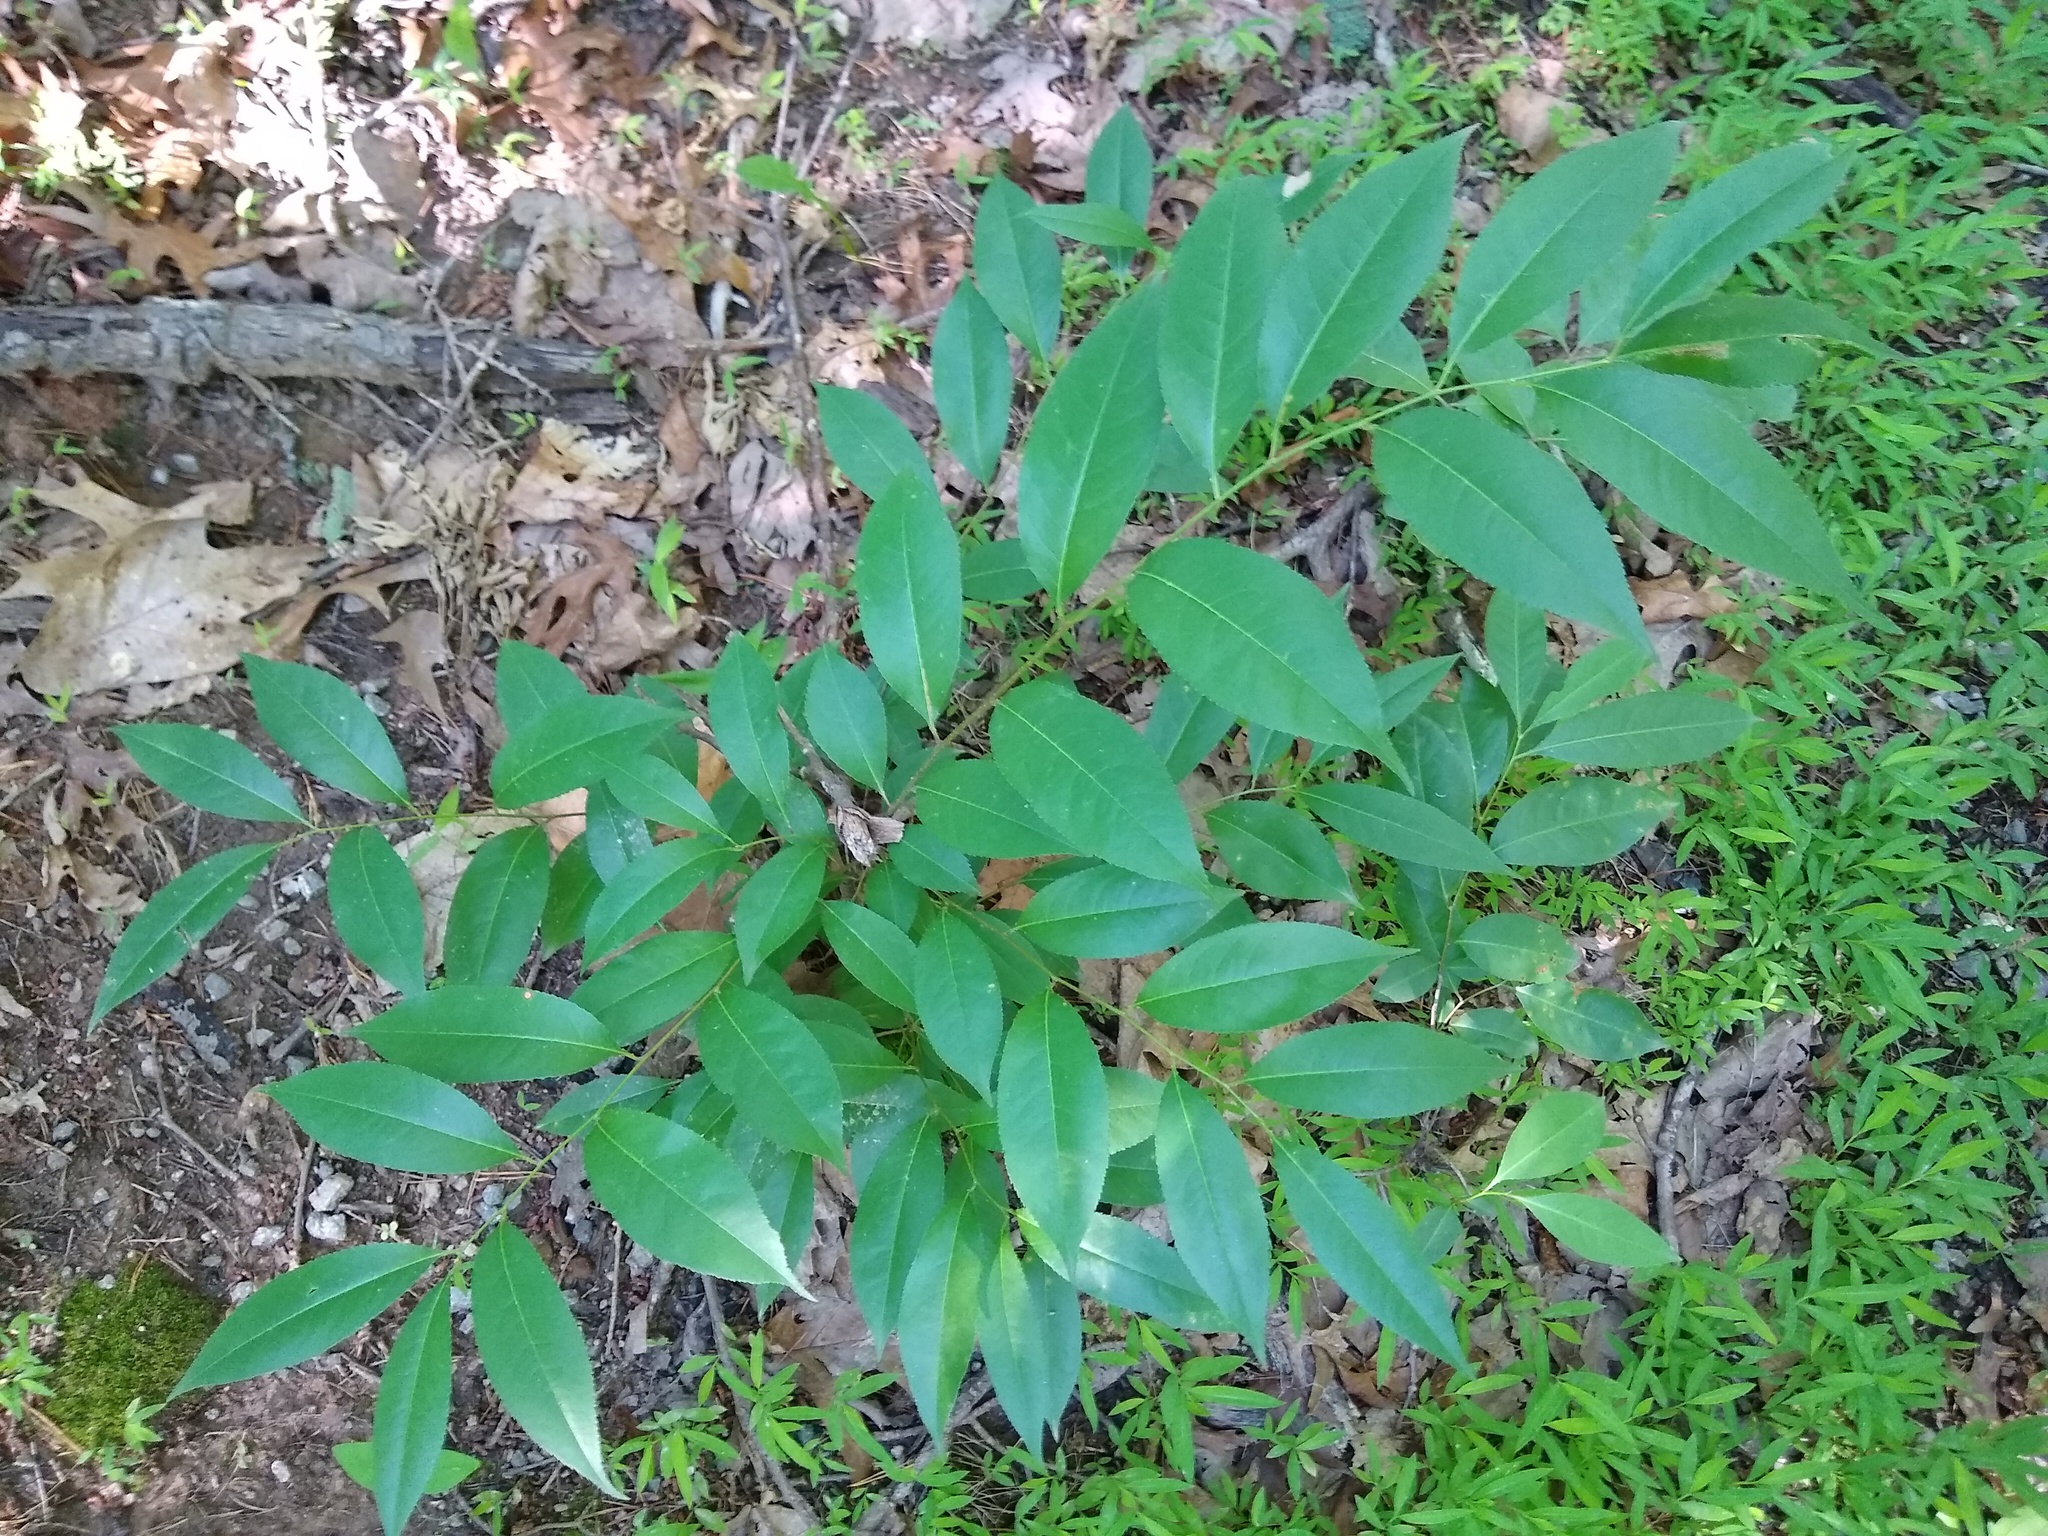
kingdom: Plantae
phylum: Tracheophyta
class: Magnoliopsida
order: Rosales
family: Rosaceae
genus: Prunus
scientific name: Prunus serotina
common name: Black cherry
